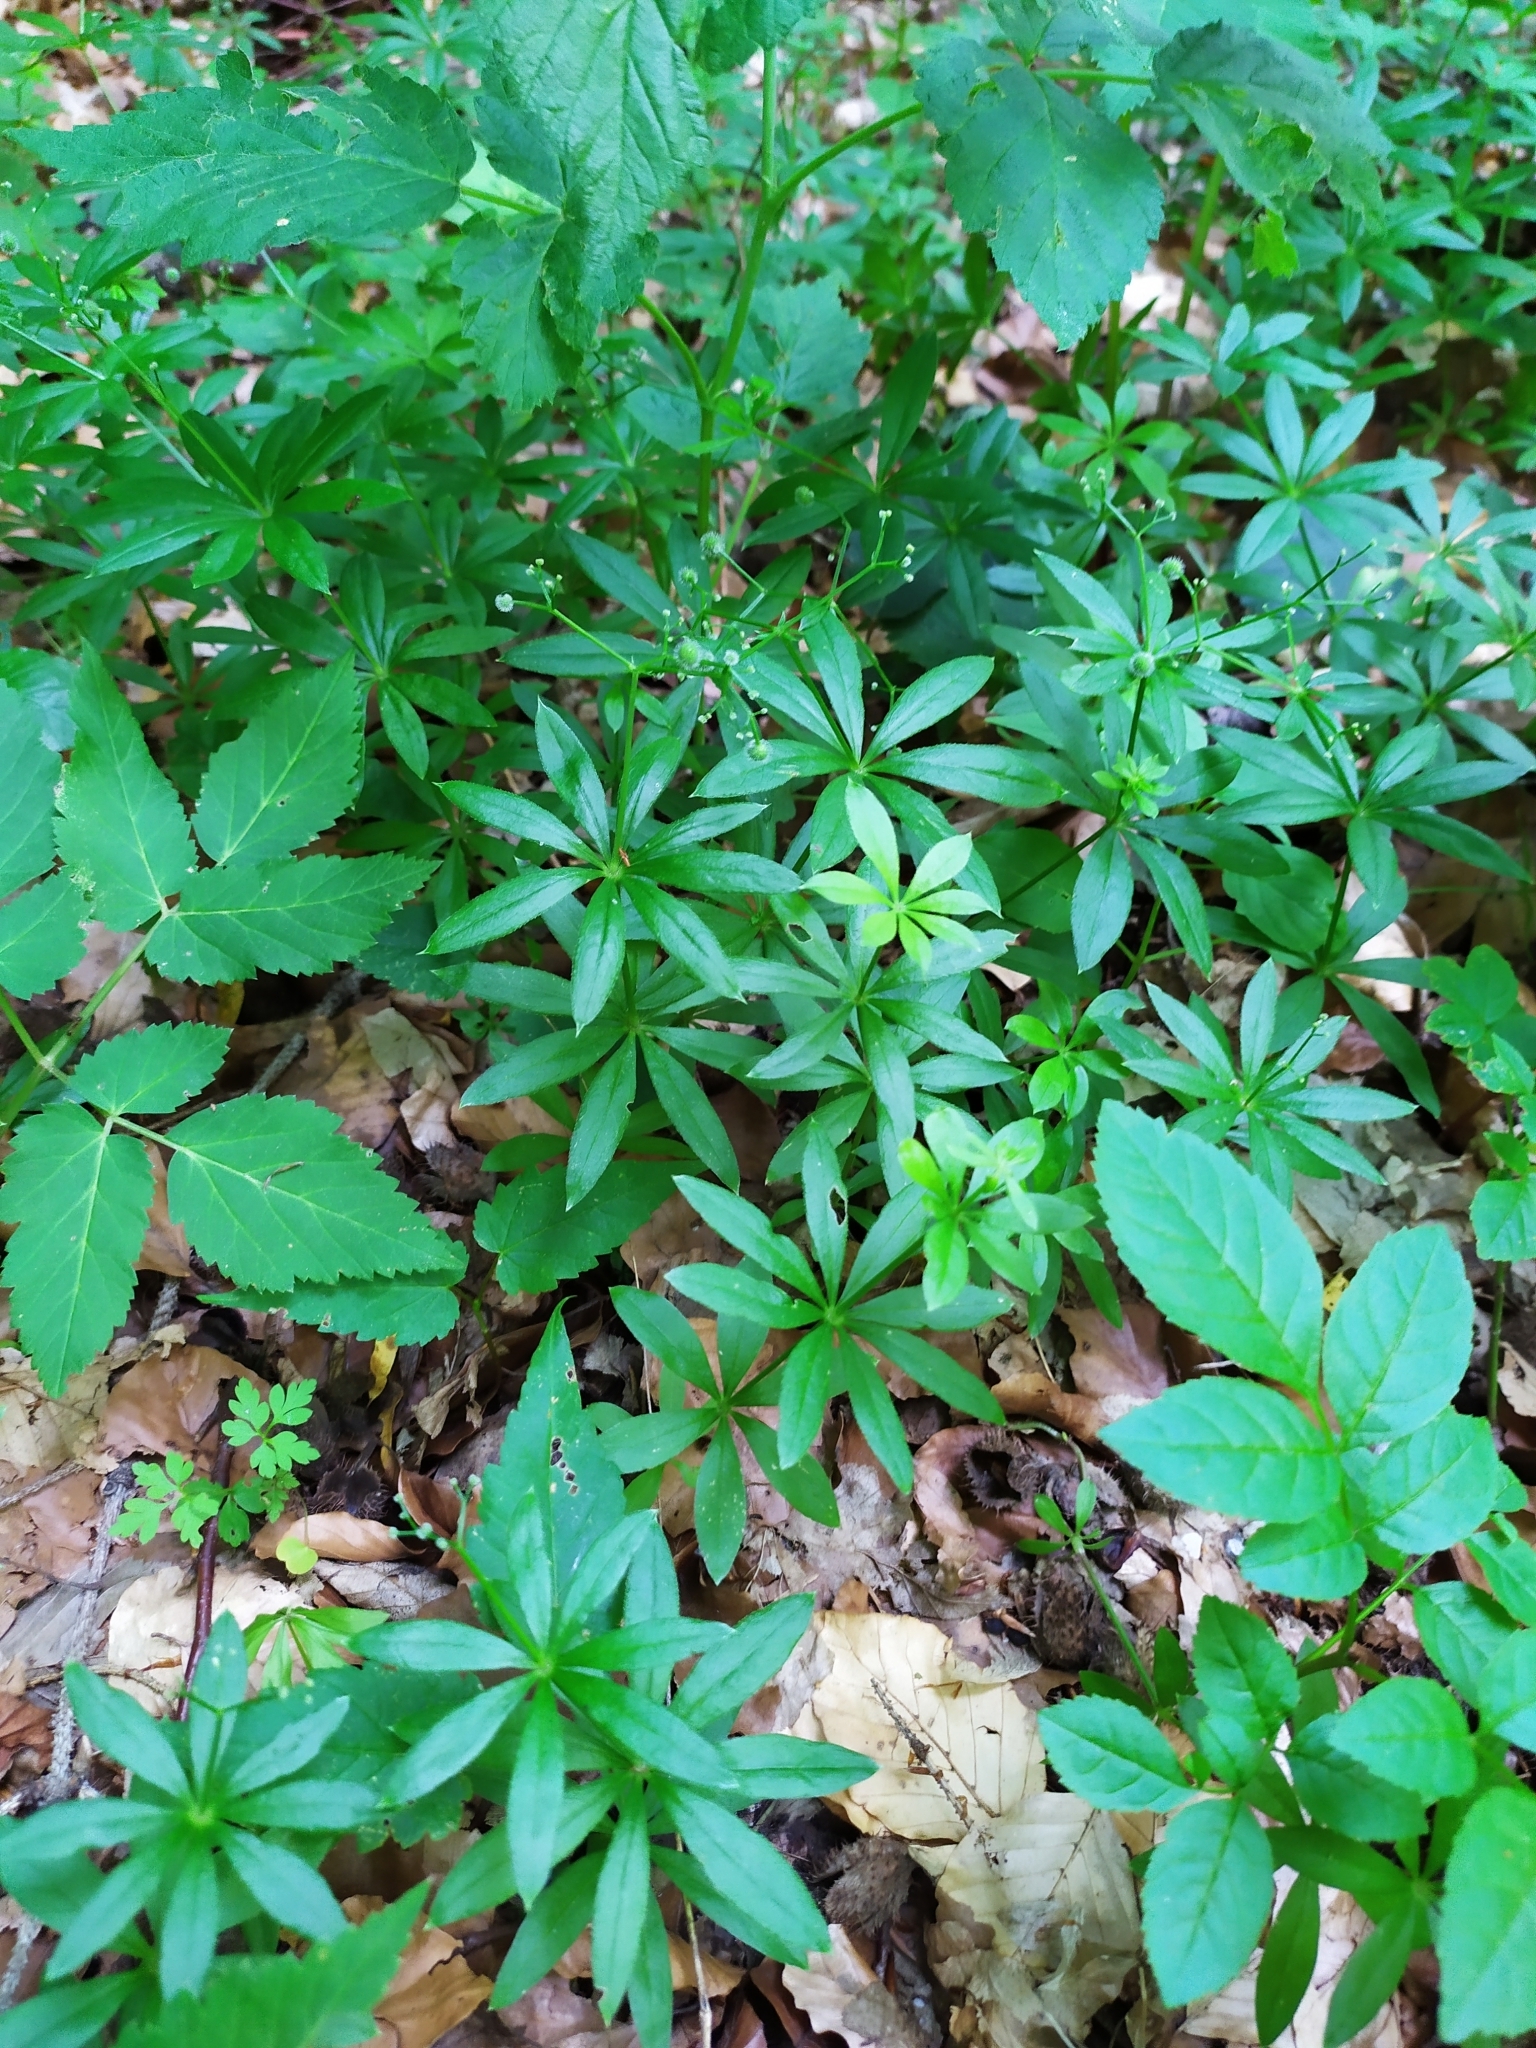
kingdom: Plantae
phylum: Tracheophyta
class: Magnoliopsida
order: Gentianales
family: Rubiaceae
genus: Galium
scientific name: Galium odoratum
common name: Sweet woodruff
